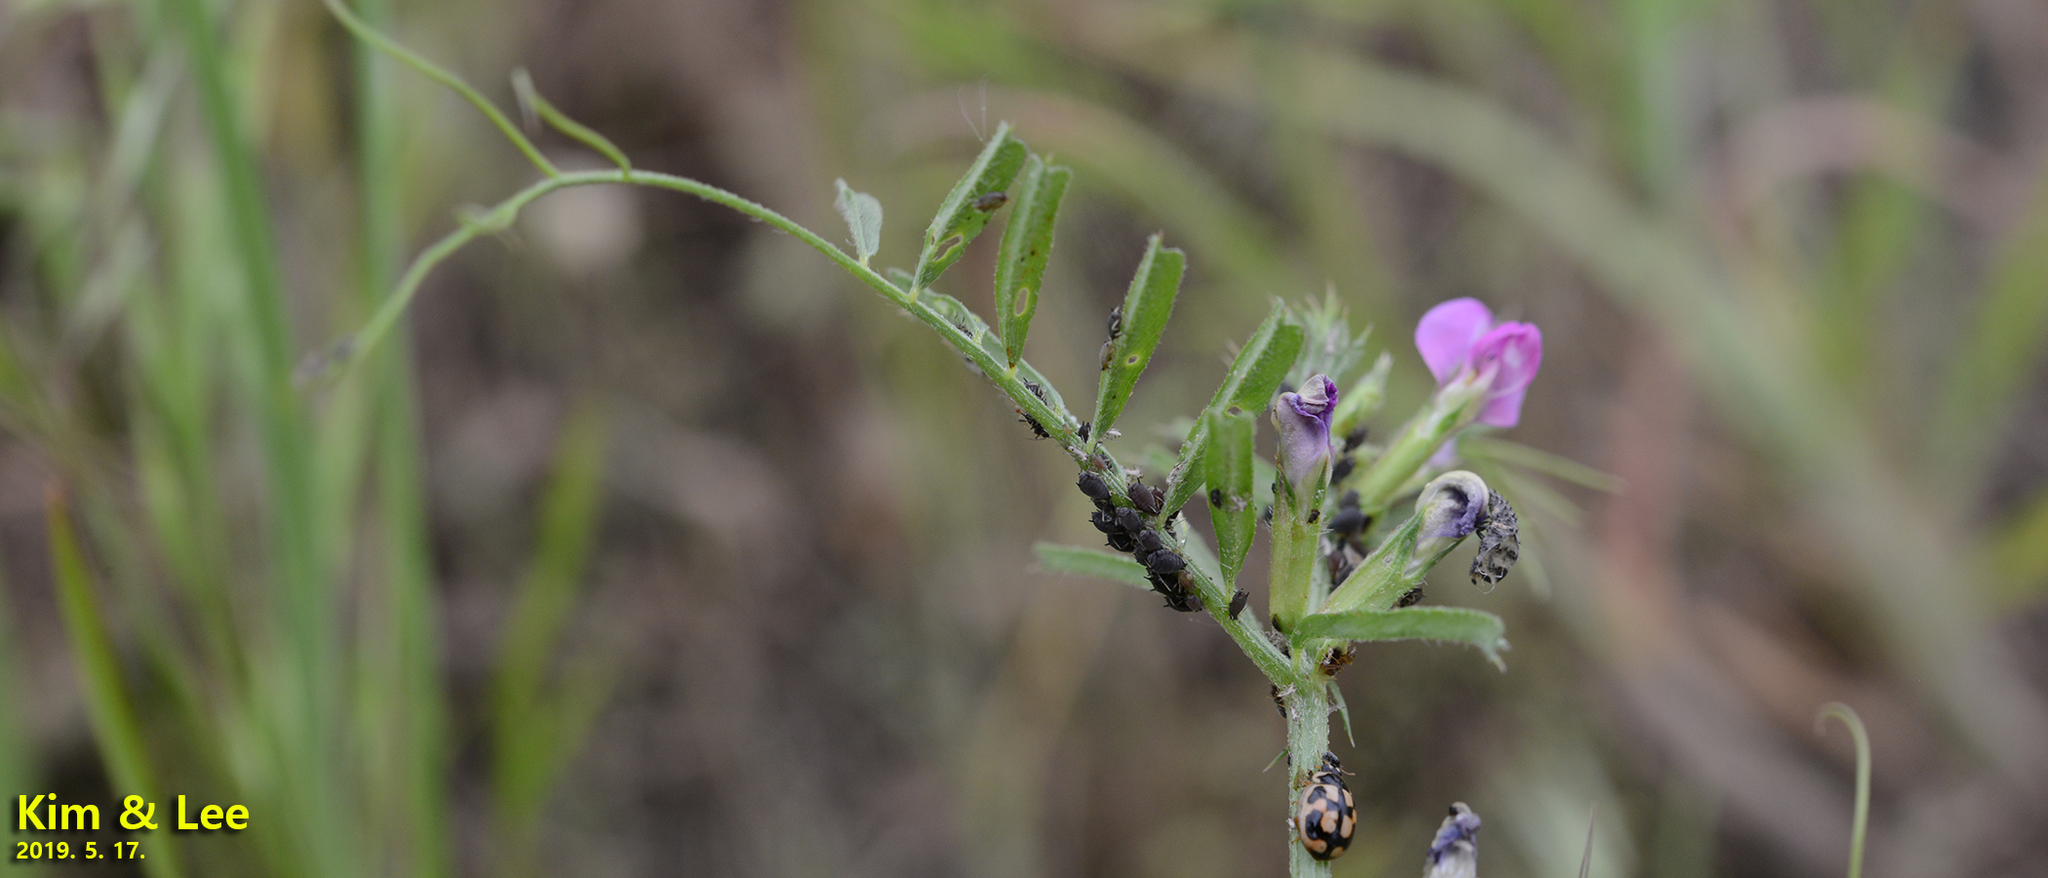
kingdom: Animalia
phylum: Arthropoda
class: Insecta
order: Hemiptera
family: Aphididae
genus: Aphis
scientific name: Aphis craccivora
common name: Cowpea aphid
